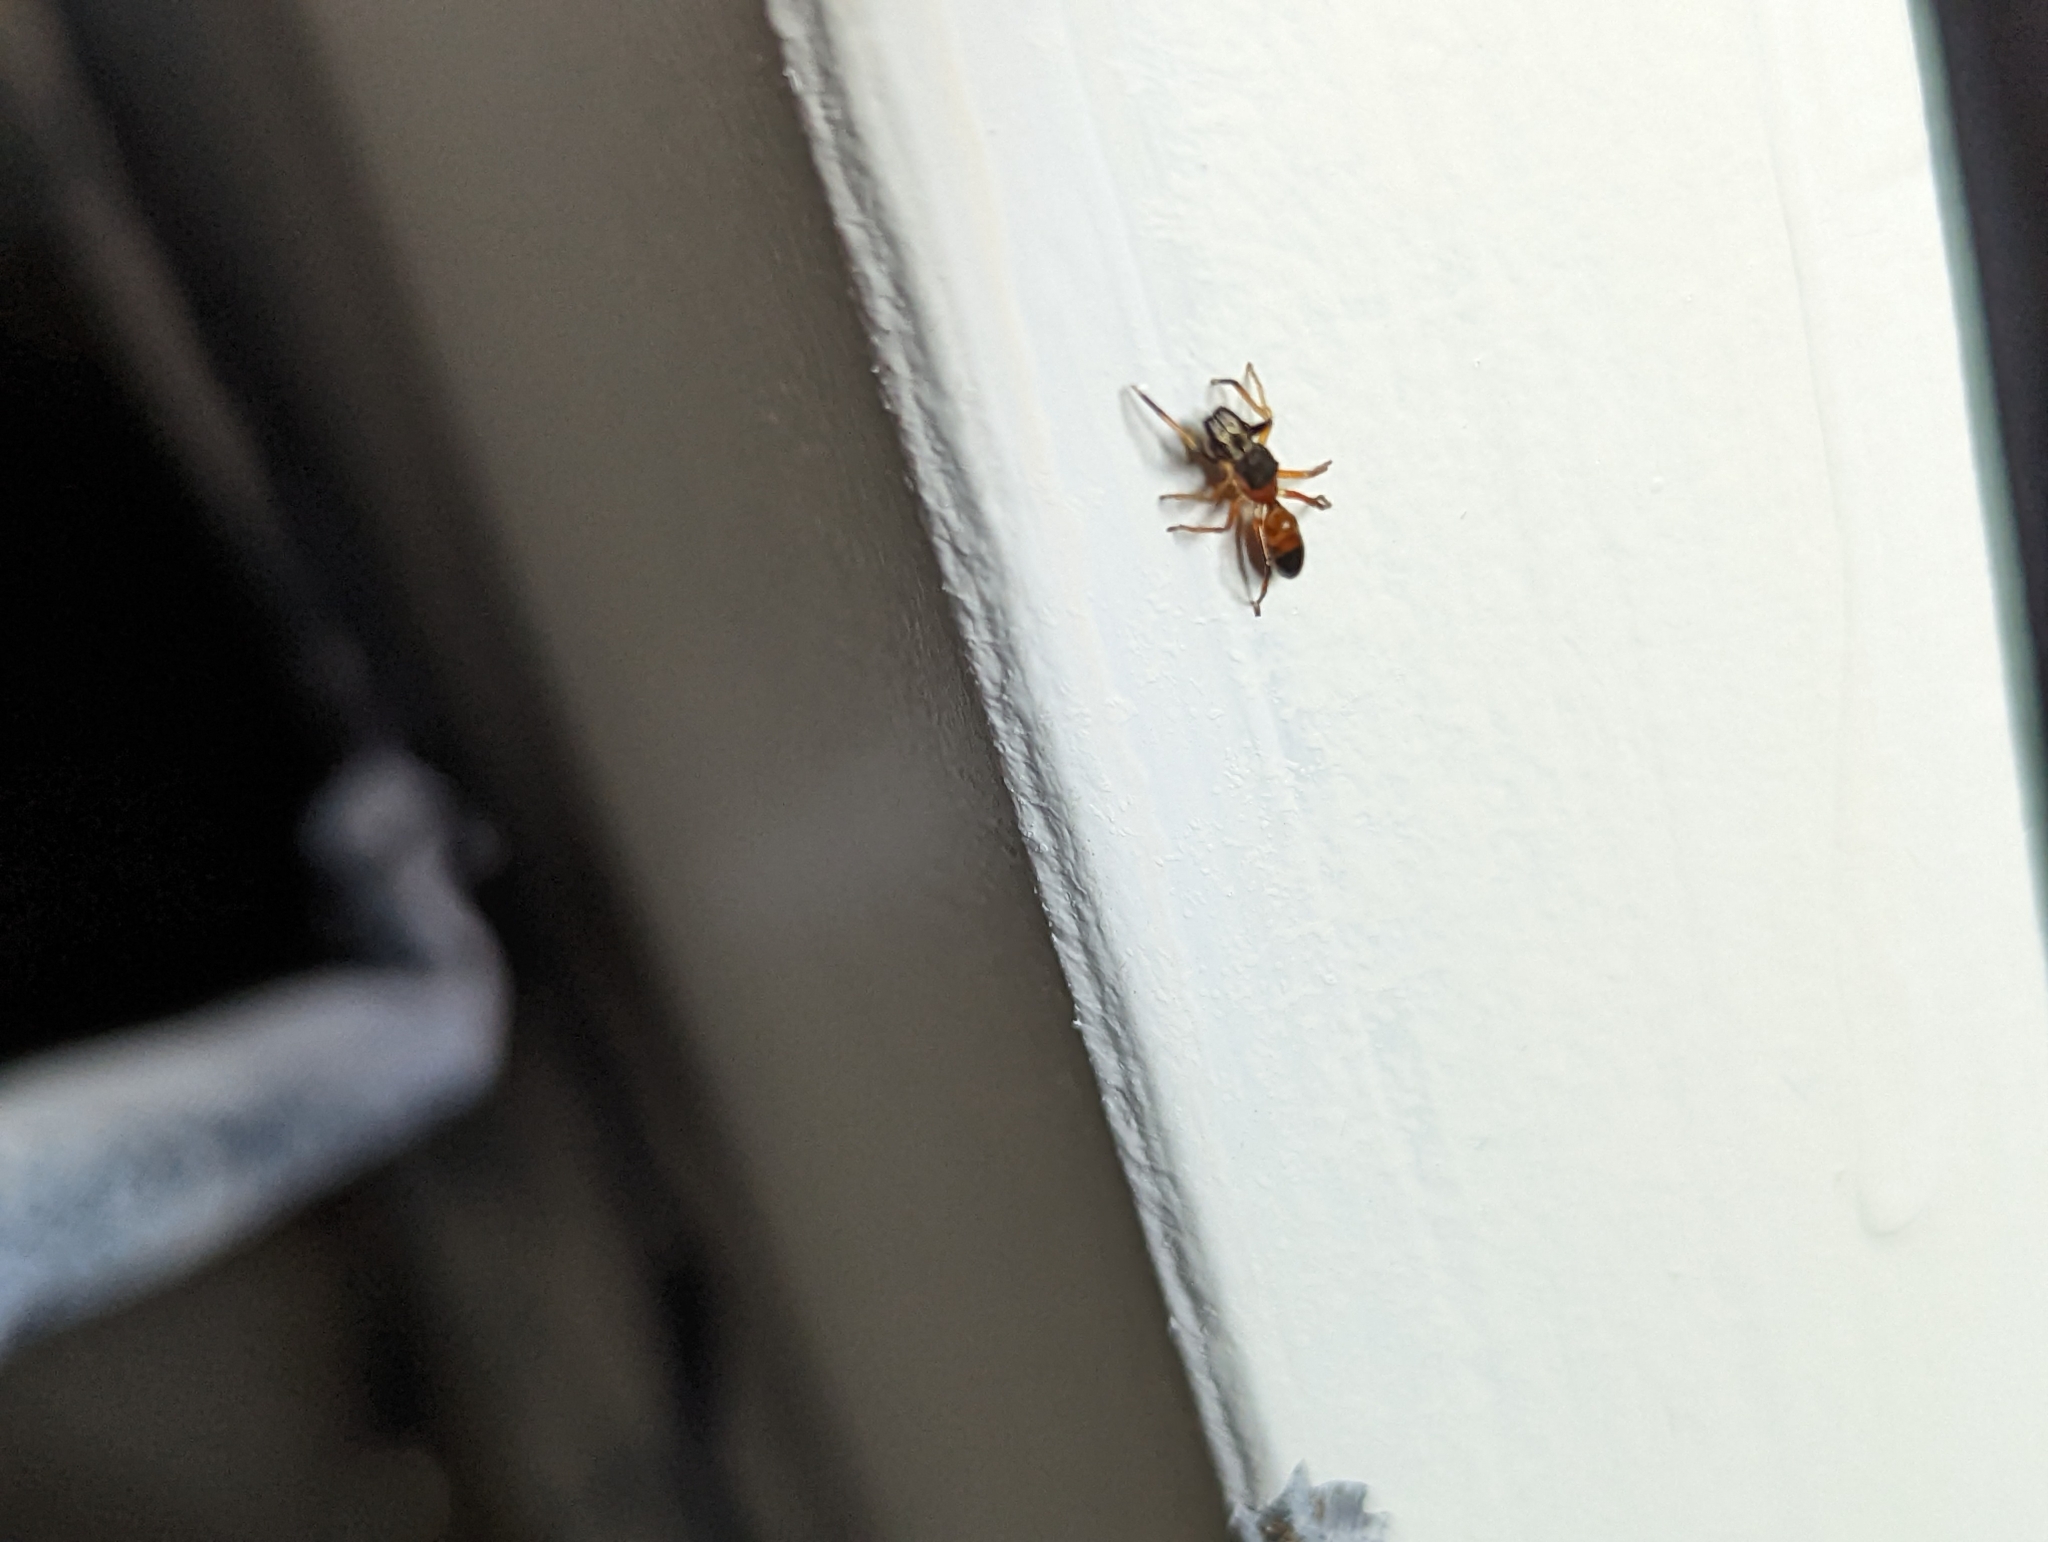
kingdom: Animalia
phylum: Arthropoda
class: Arachnida
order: Araneae
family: Salticidae
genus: Myrmarachne
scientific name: Myrmarachne formicaria
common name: Ant mimic jumping spider
